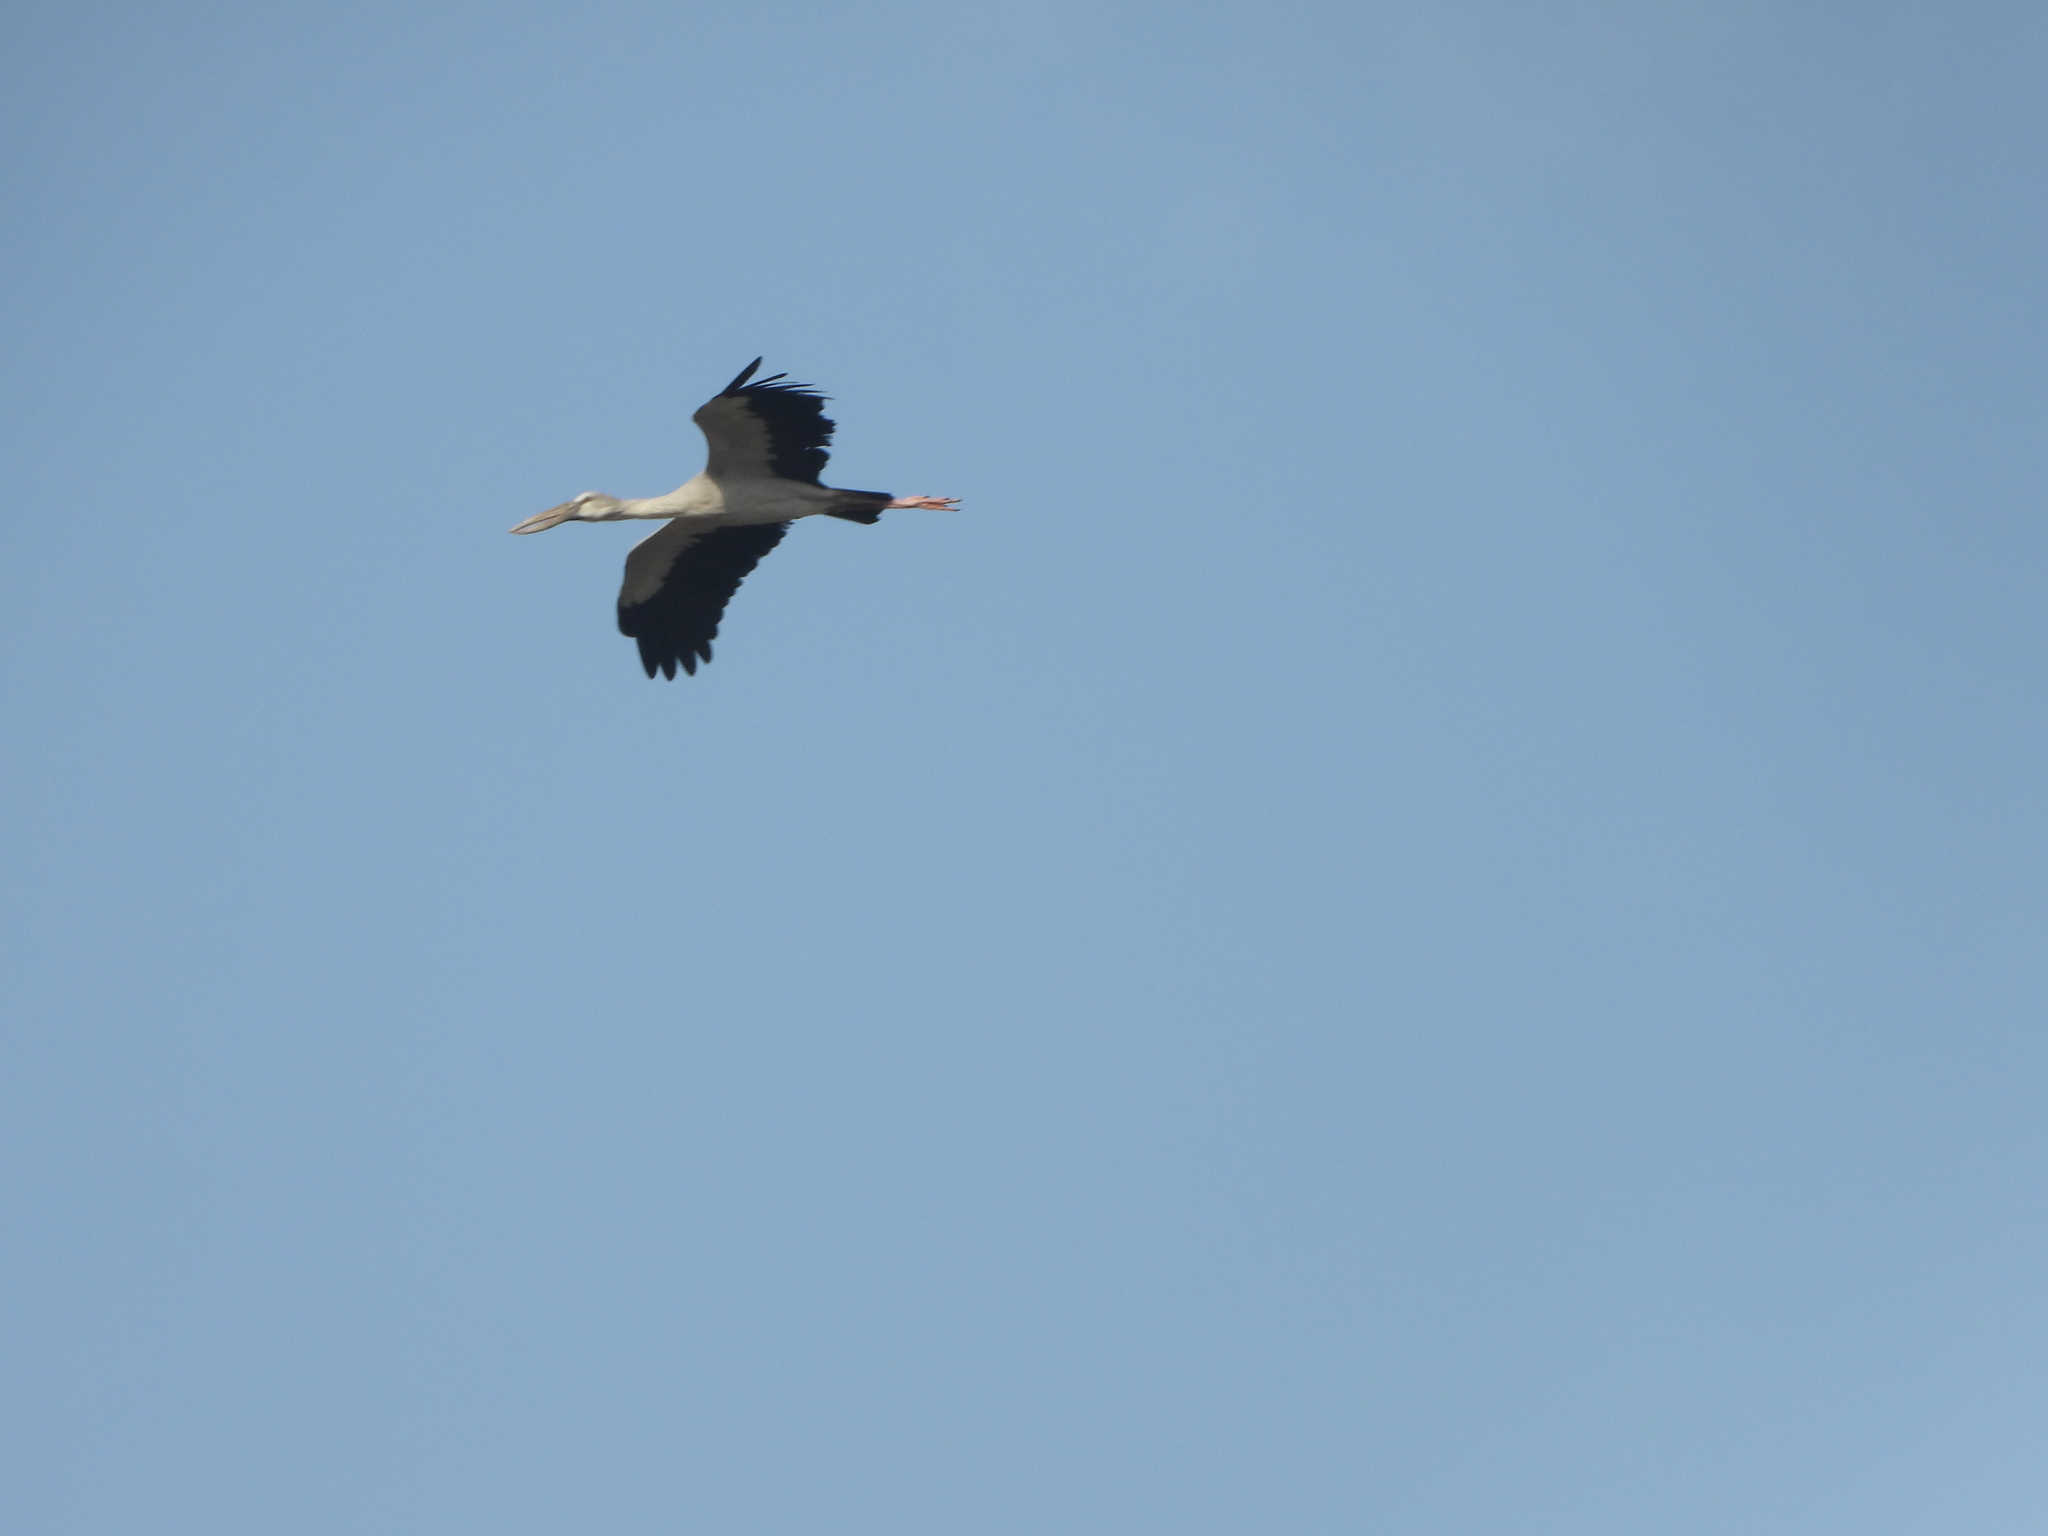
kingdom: Animalia
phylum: Chordata
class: Aves
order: Ciconiiformes
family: Ciconiidae
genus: Anastomus
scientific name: Anastomus oscitans
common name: Asian openbill
